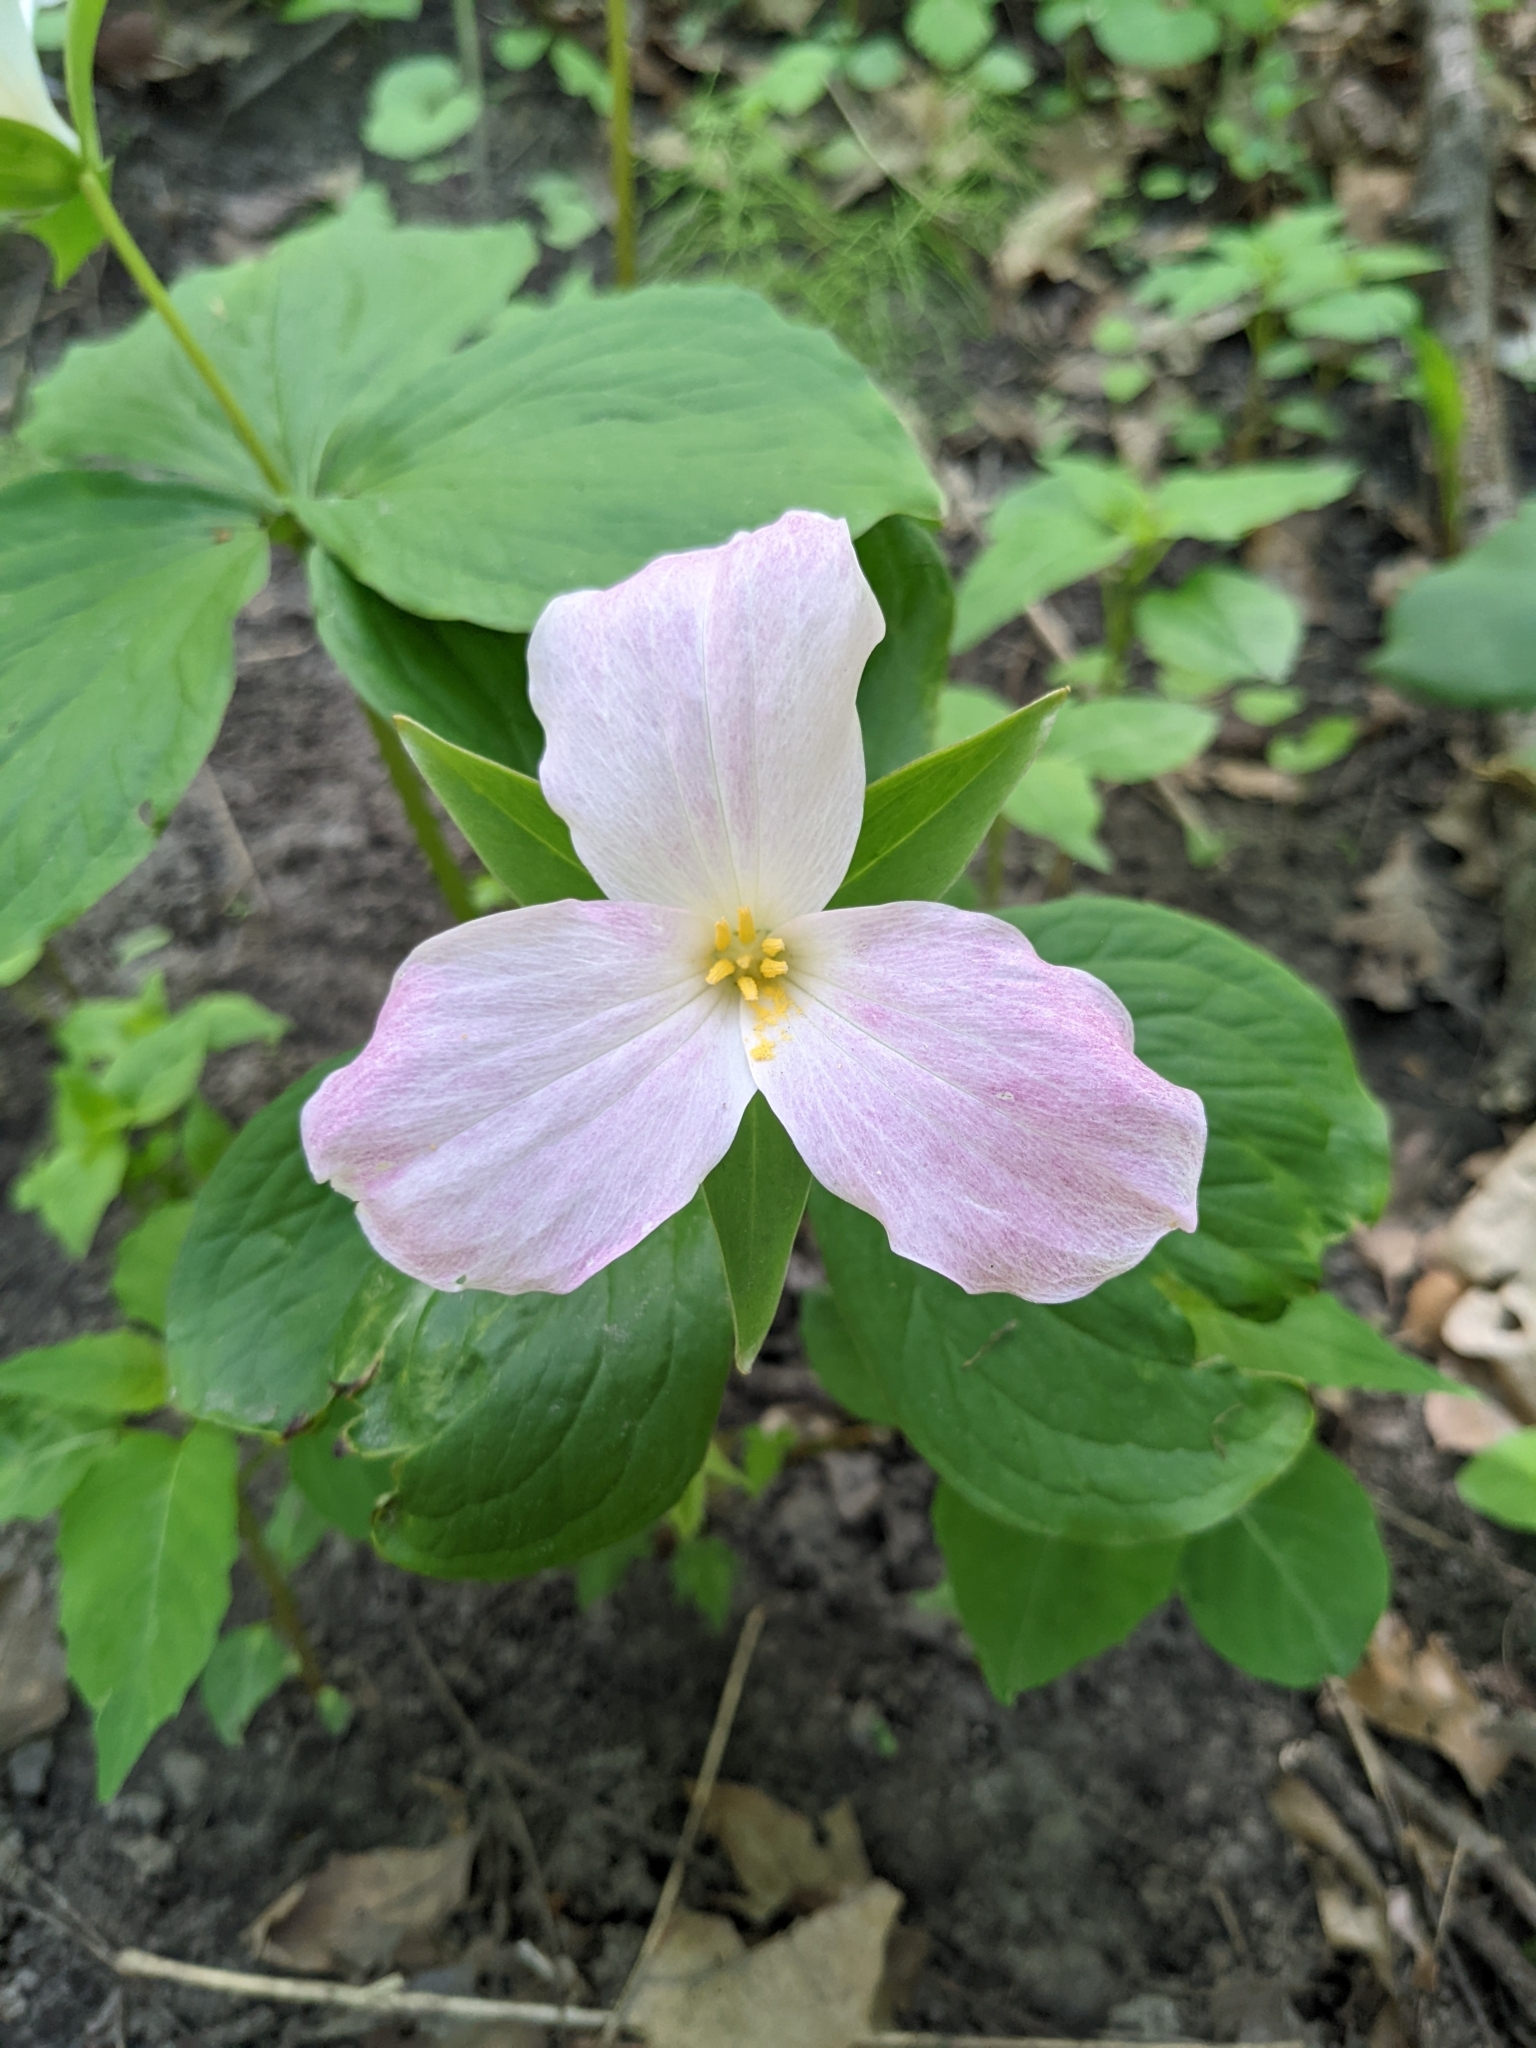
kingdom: Plantae
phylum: Tracheophyta
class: Liliopsida
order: Liliales
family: Melanthiaceae
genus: Trillium
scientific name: Trillium grandiflorum
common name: Great white trillium
